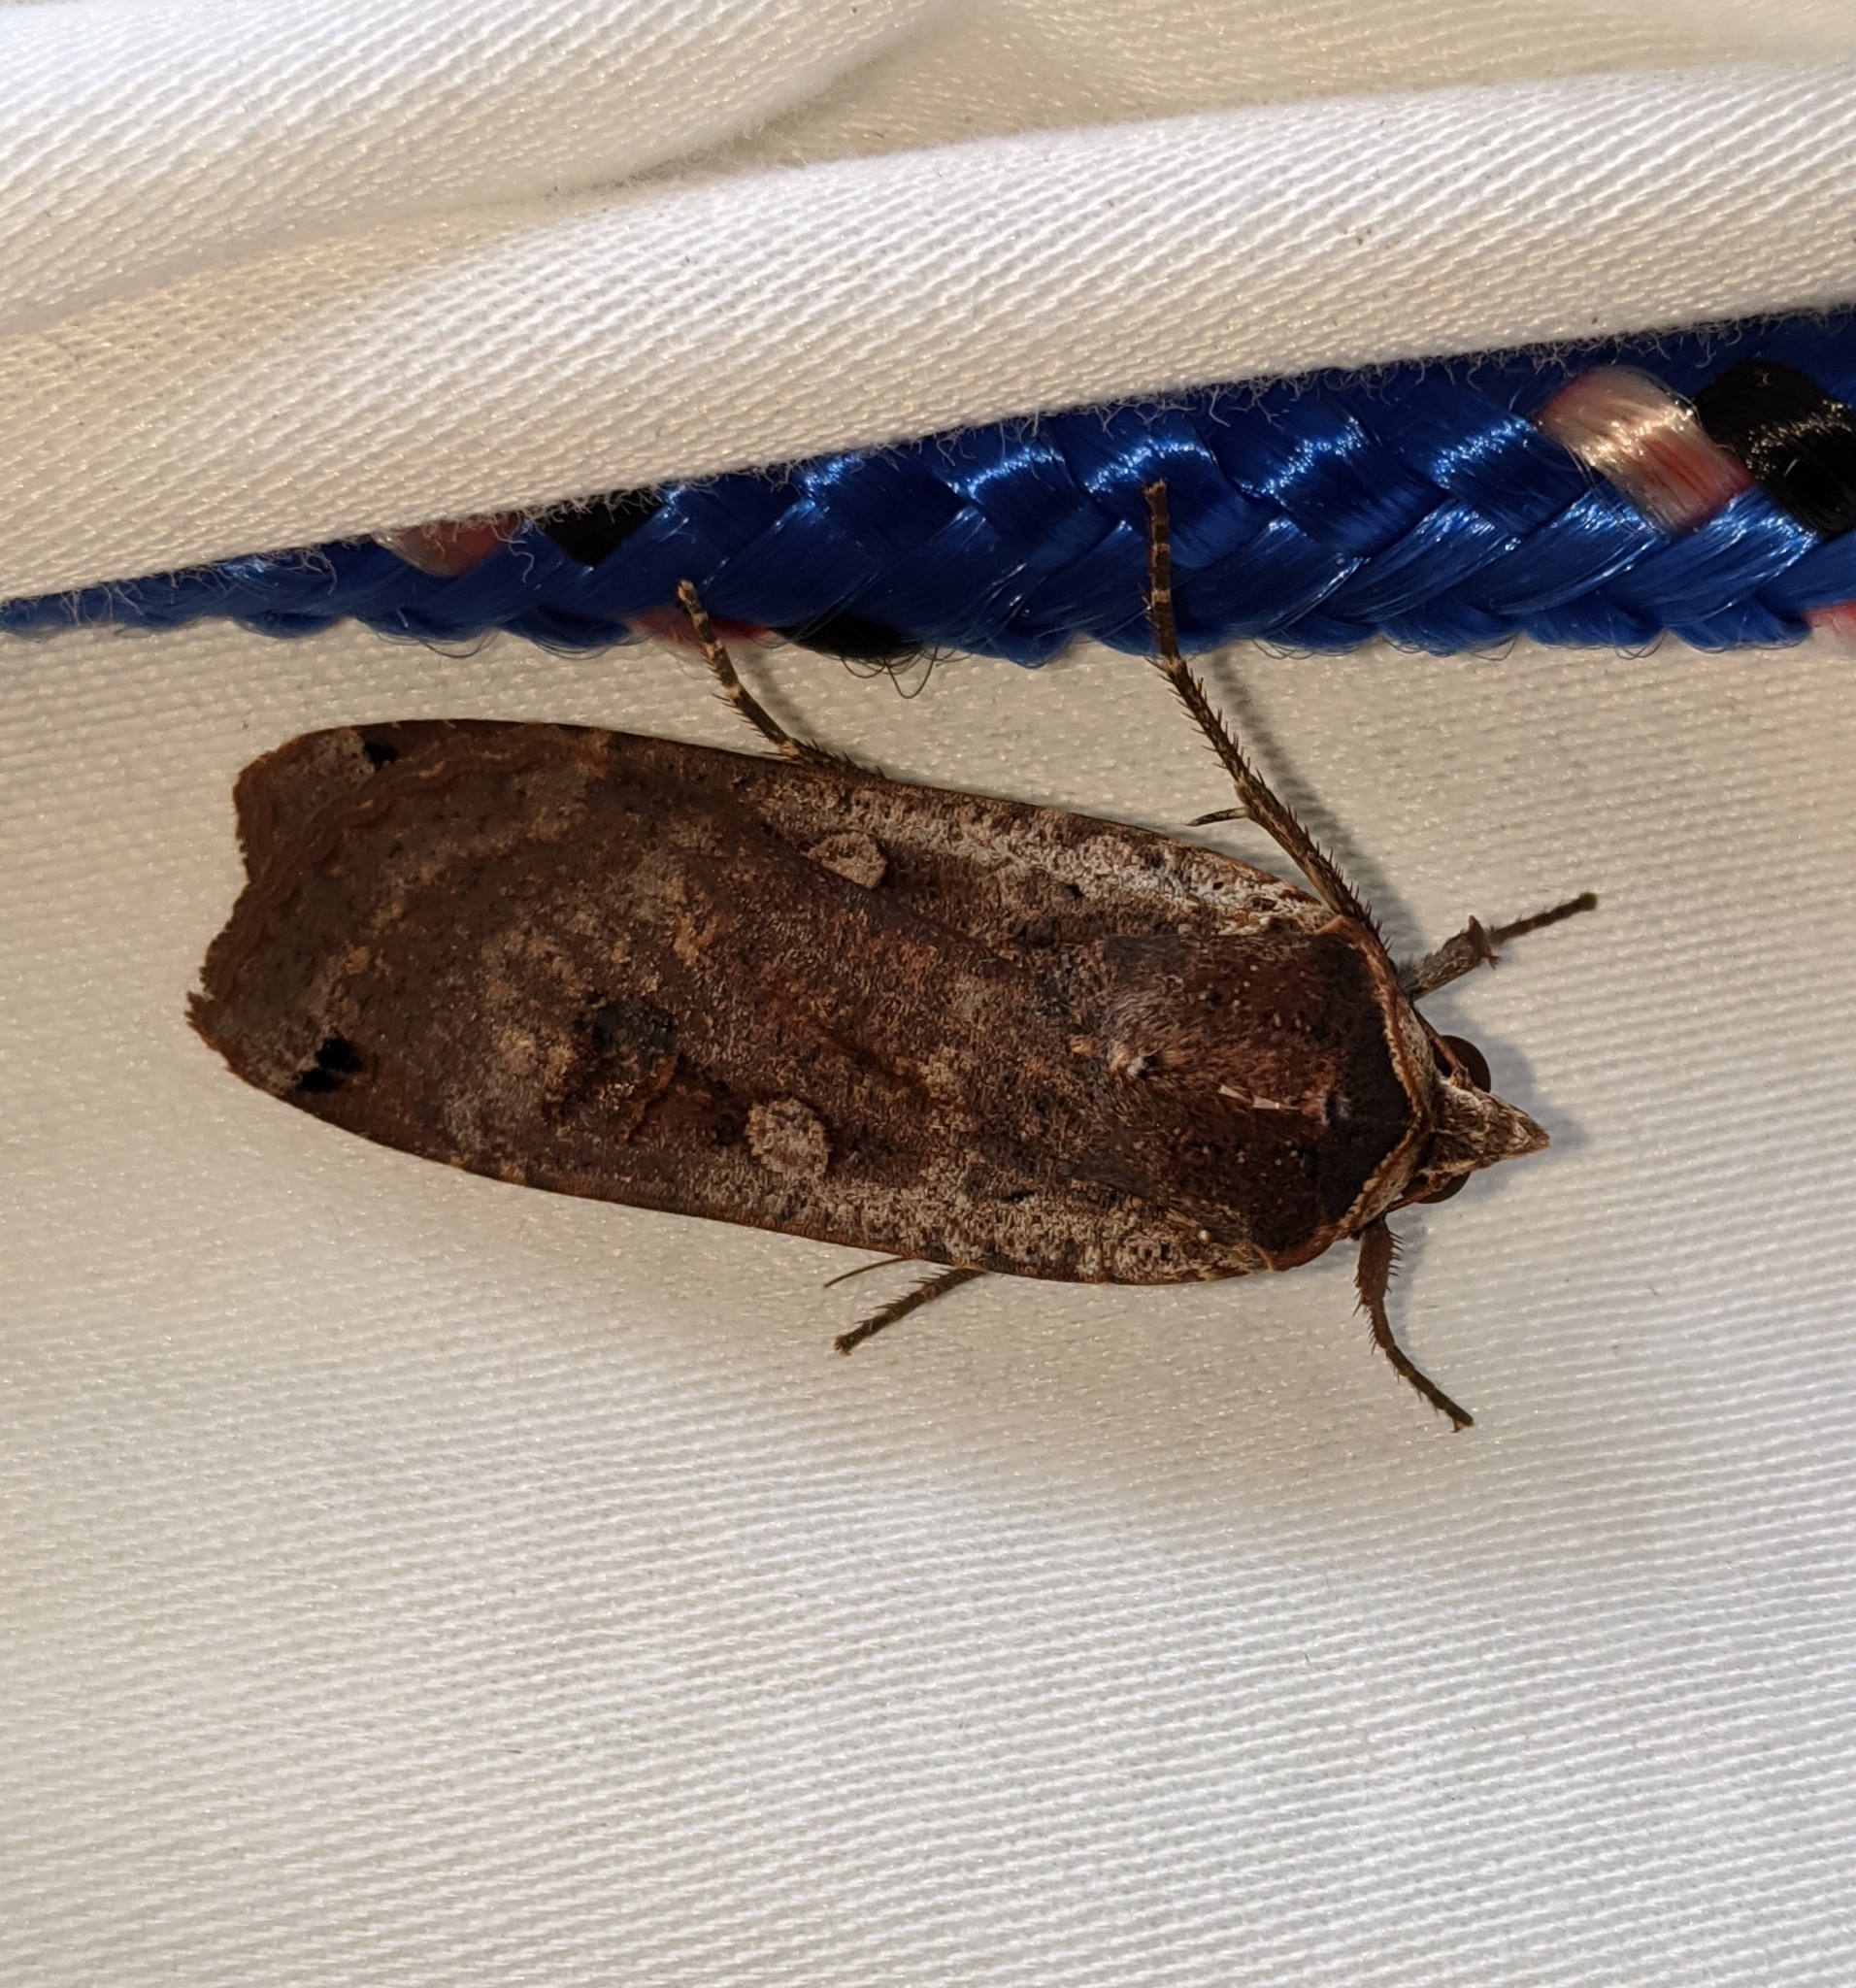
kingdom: Animalia
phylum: Arthropoda
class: Insecta
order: Lepidoptera
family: Noctuidae
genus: Noctua
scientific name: Noctua pronuba
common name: Large yellow underwing
